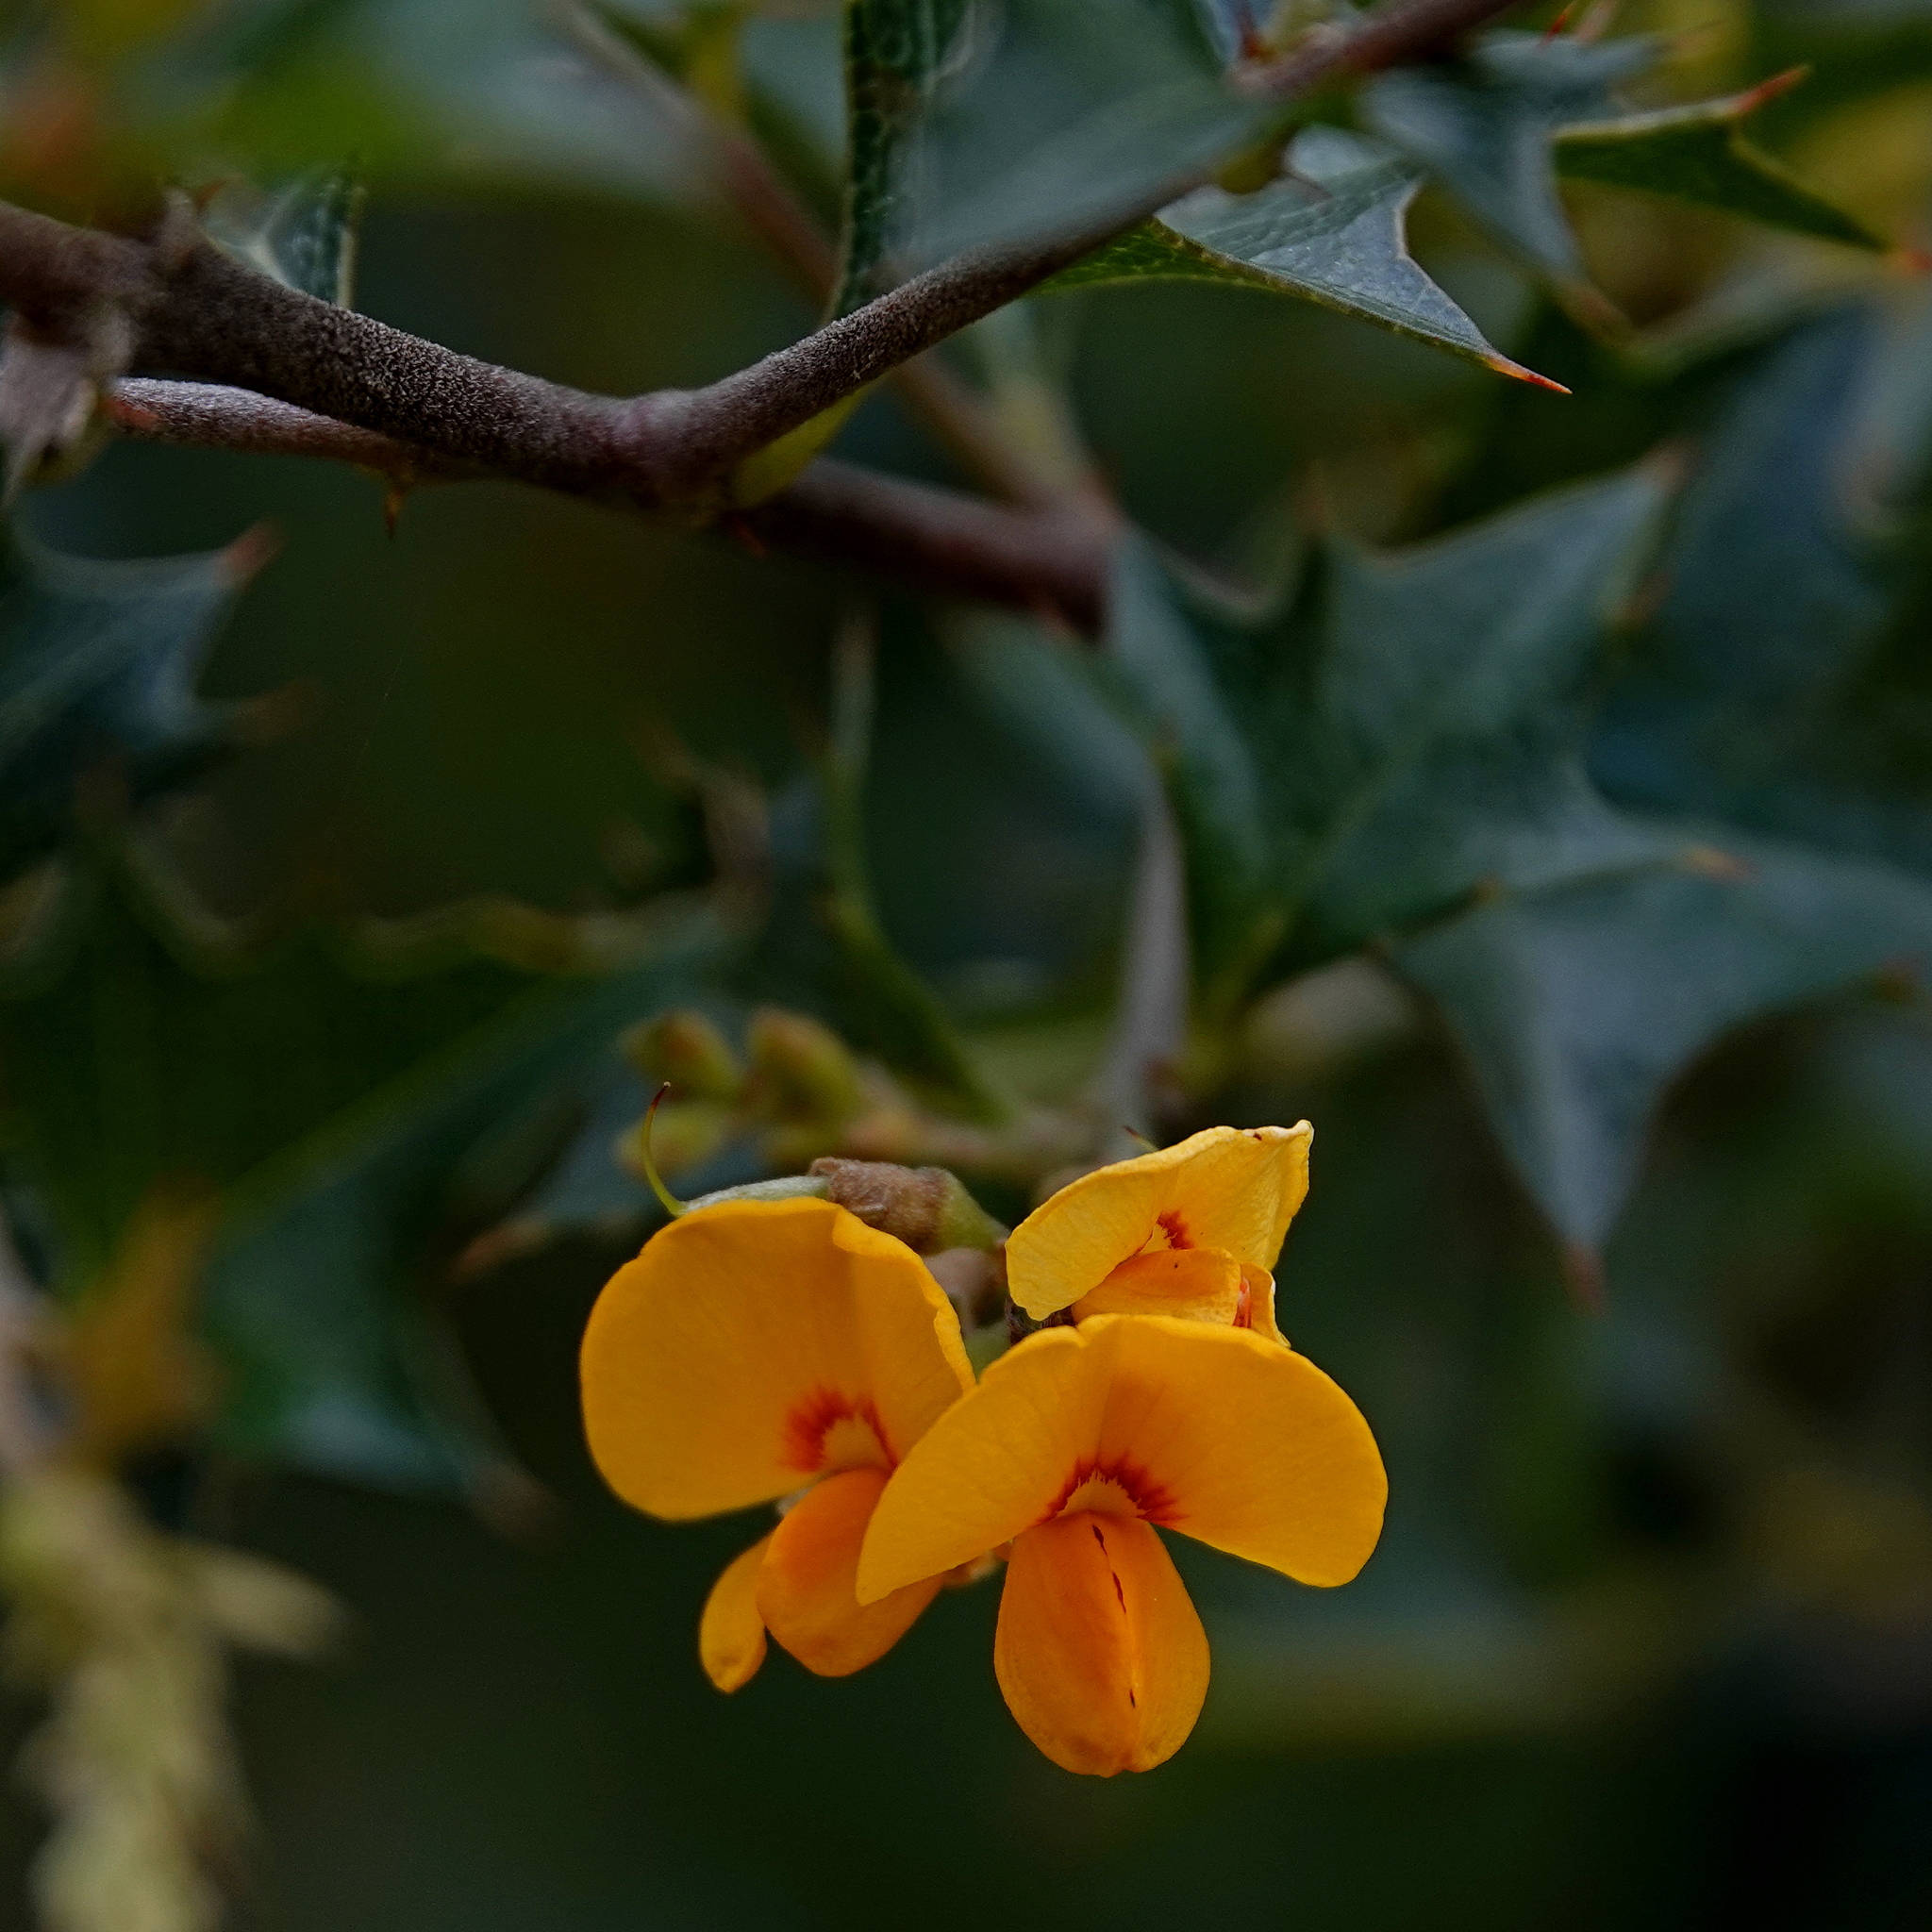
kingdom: Plantae
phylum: Tracheophyta
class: Magnoliopsida
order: Fabales
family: Fabaceae
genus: Podolobium
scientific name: Podolobium ilicifolium
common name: Native holly
